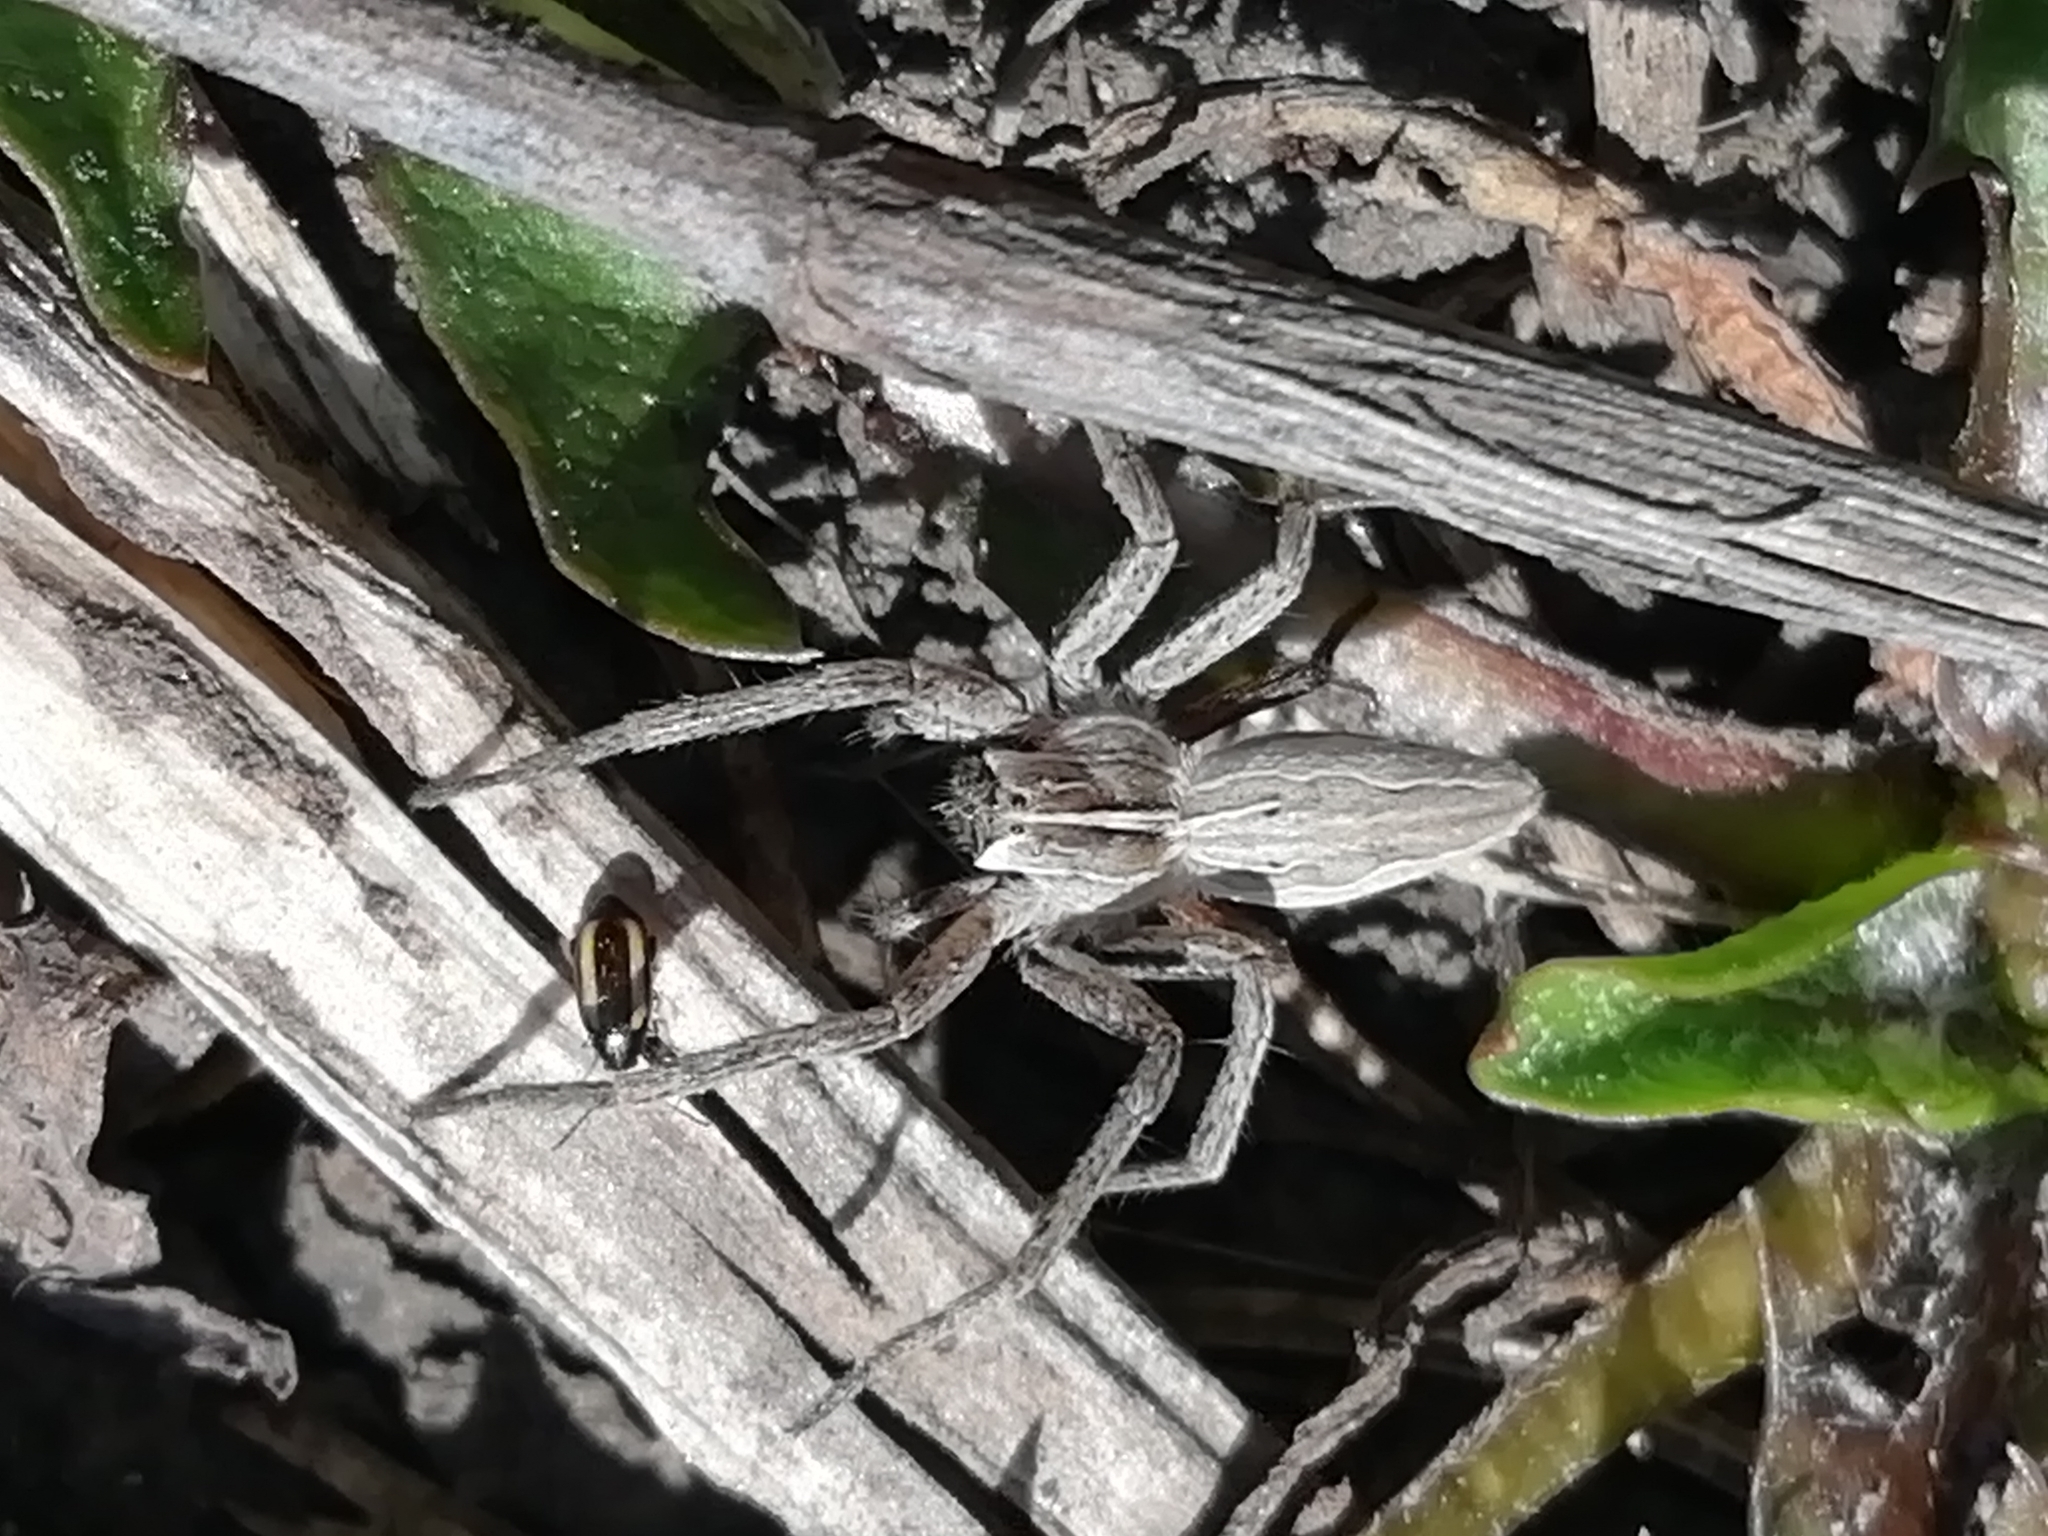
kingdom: Animalia
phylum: Arthropoda
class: Arachnida
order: Araneae
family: Pisauridae
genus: Pisaura
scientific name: Pisaura mirabilis
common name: Tent spider
